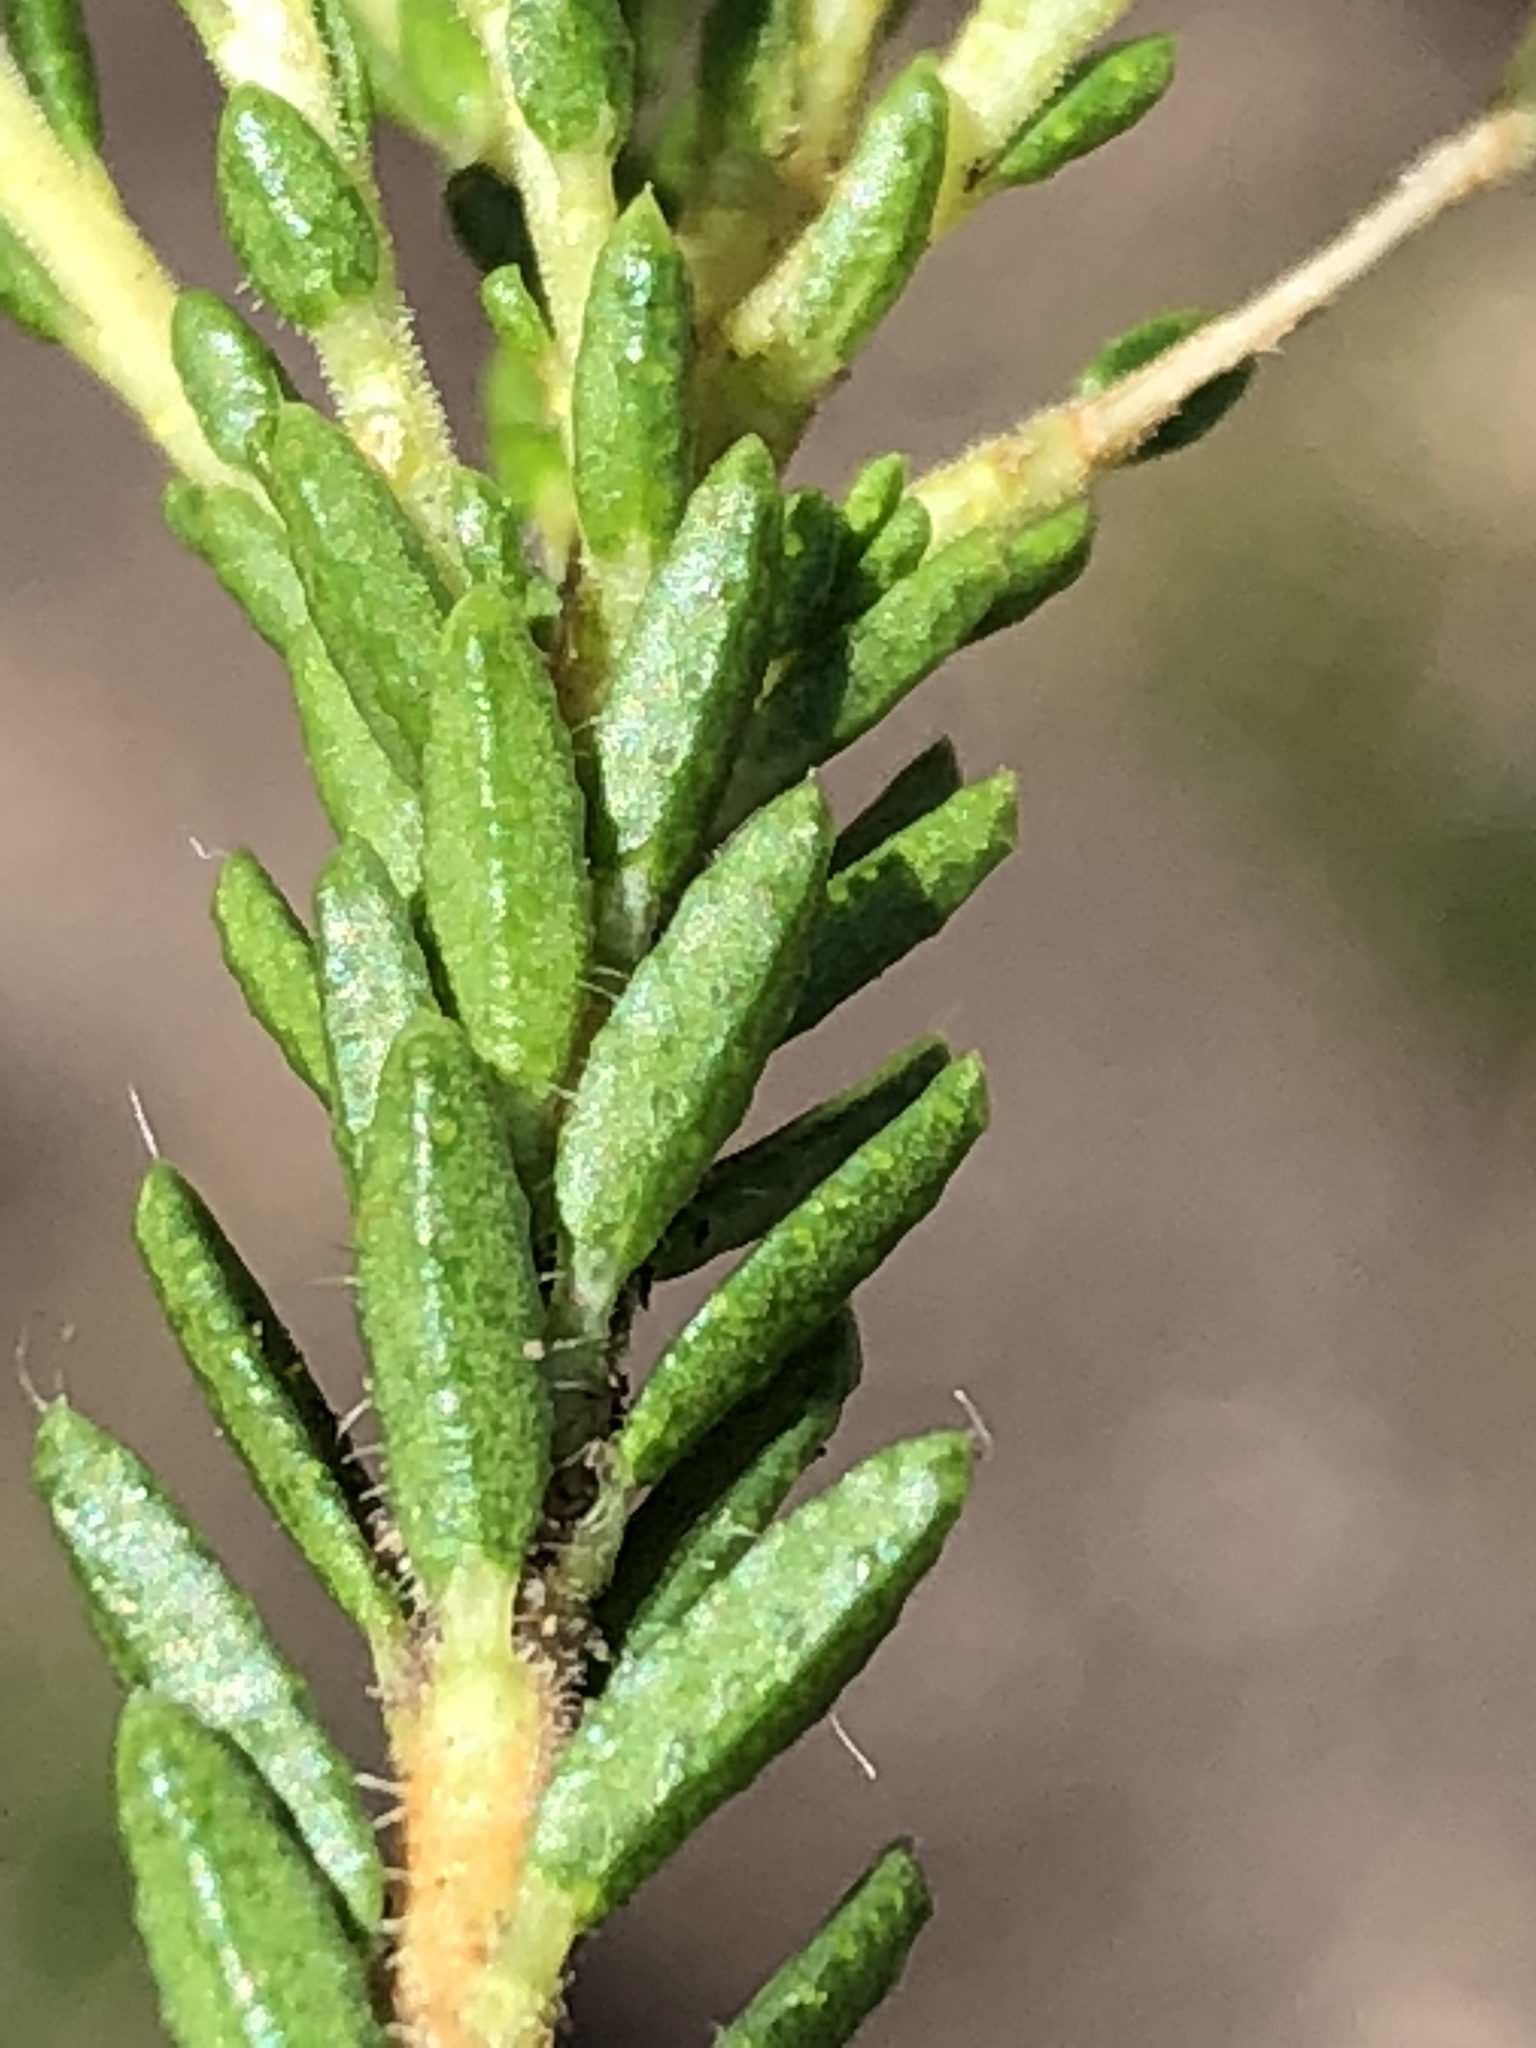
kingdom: Plantae
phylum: Tracheophyta
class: Magnoliopsida
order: Sapindales
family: Rutaceae
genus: Agathosma
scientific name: Agathosma capensis
